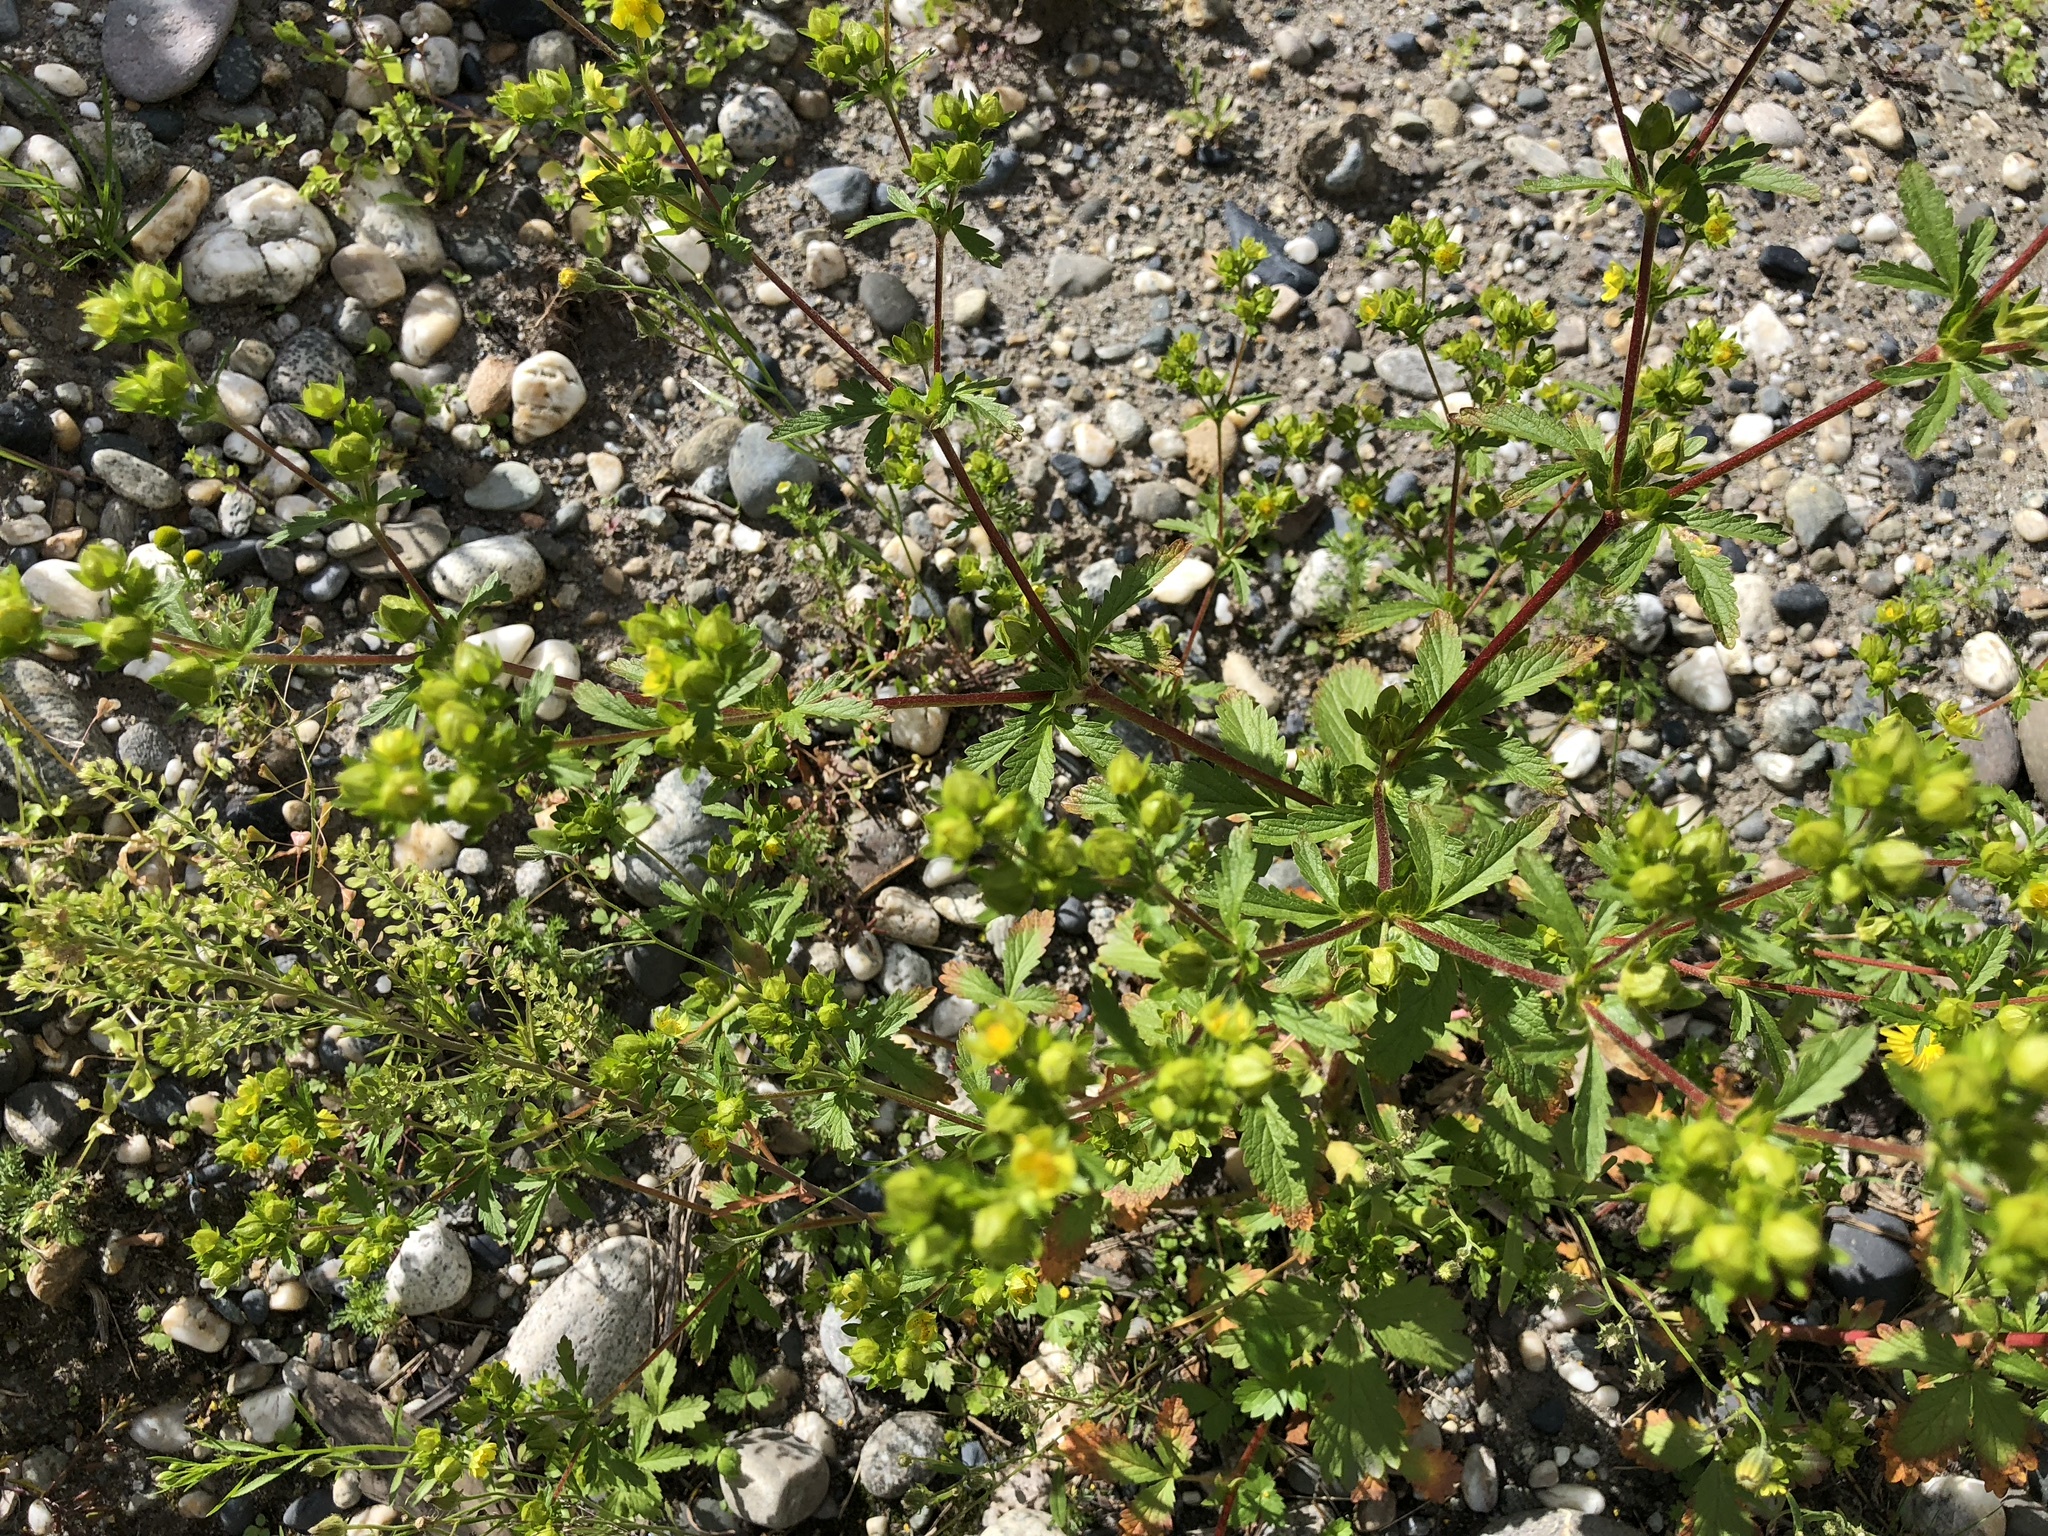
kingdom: Plantae
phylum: Tracheophyta
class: Magnoliopsida
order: Rosales
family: Rosaceae
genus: Potentilla
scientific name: Potentilla norvegica
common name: Ternate-leaved cinquefoil
